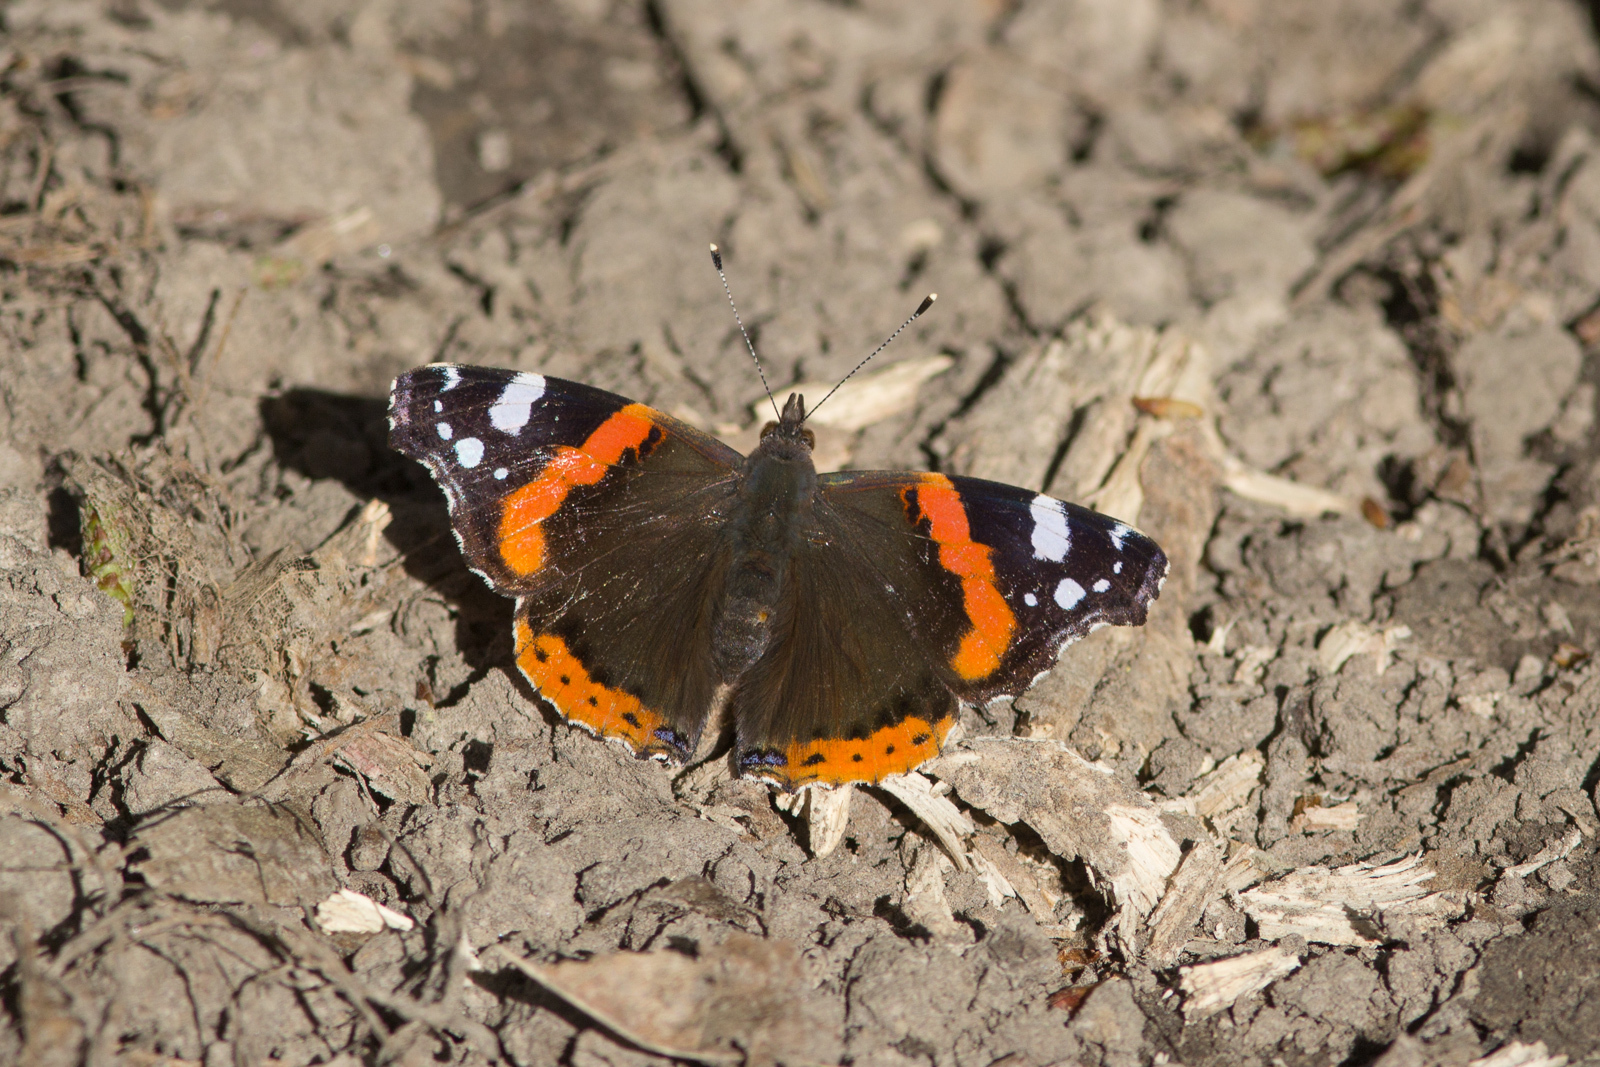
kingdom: Animalia
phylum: Arthropoda
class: Insecta
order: Lepidoptera
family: Nymphalidae
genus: Vanessa
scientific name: Vanessa atalanta
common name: Red admiral
